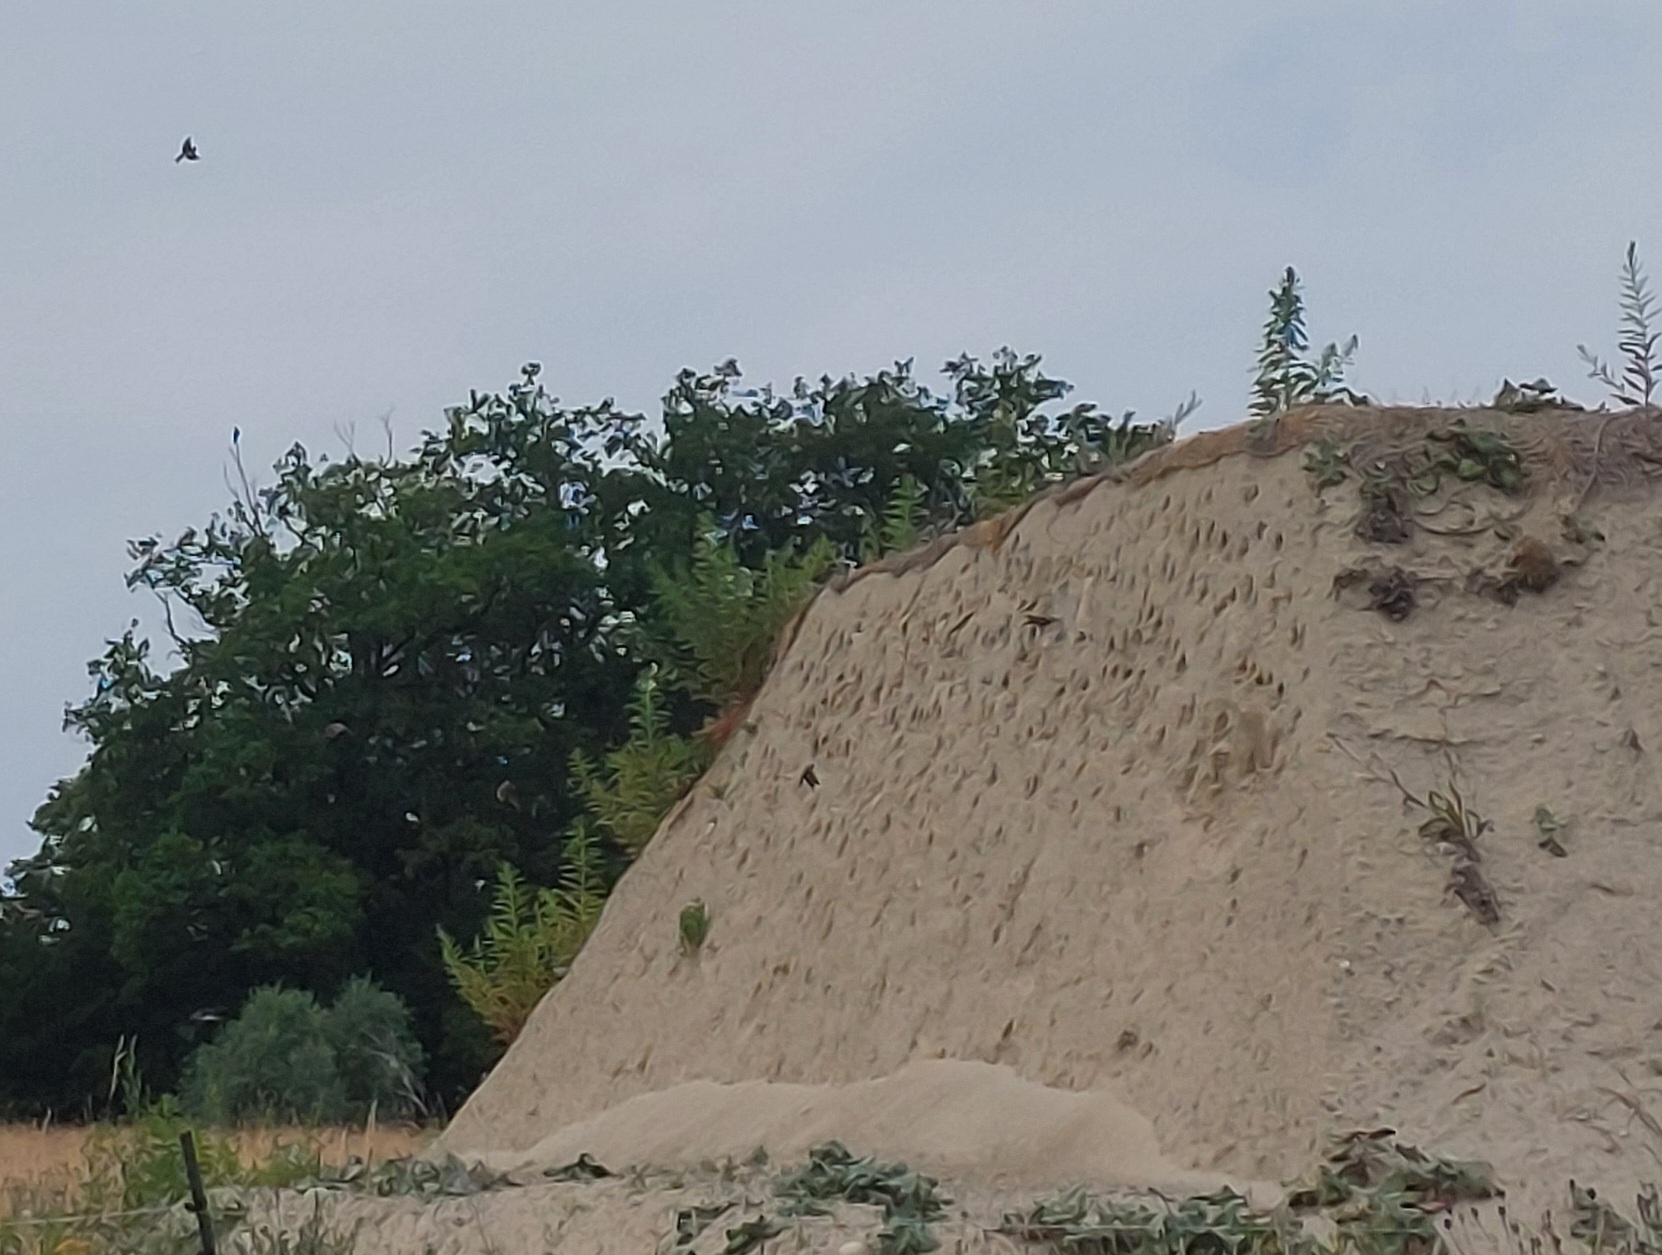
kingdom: Animalia
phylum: Chordata
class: Aves
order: Passeriformes
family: Hirundinidae
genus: Riparia
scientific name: Riparia riparia
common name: Sand martin
